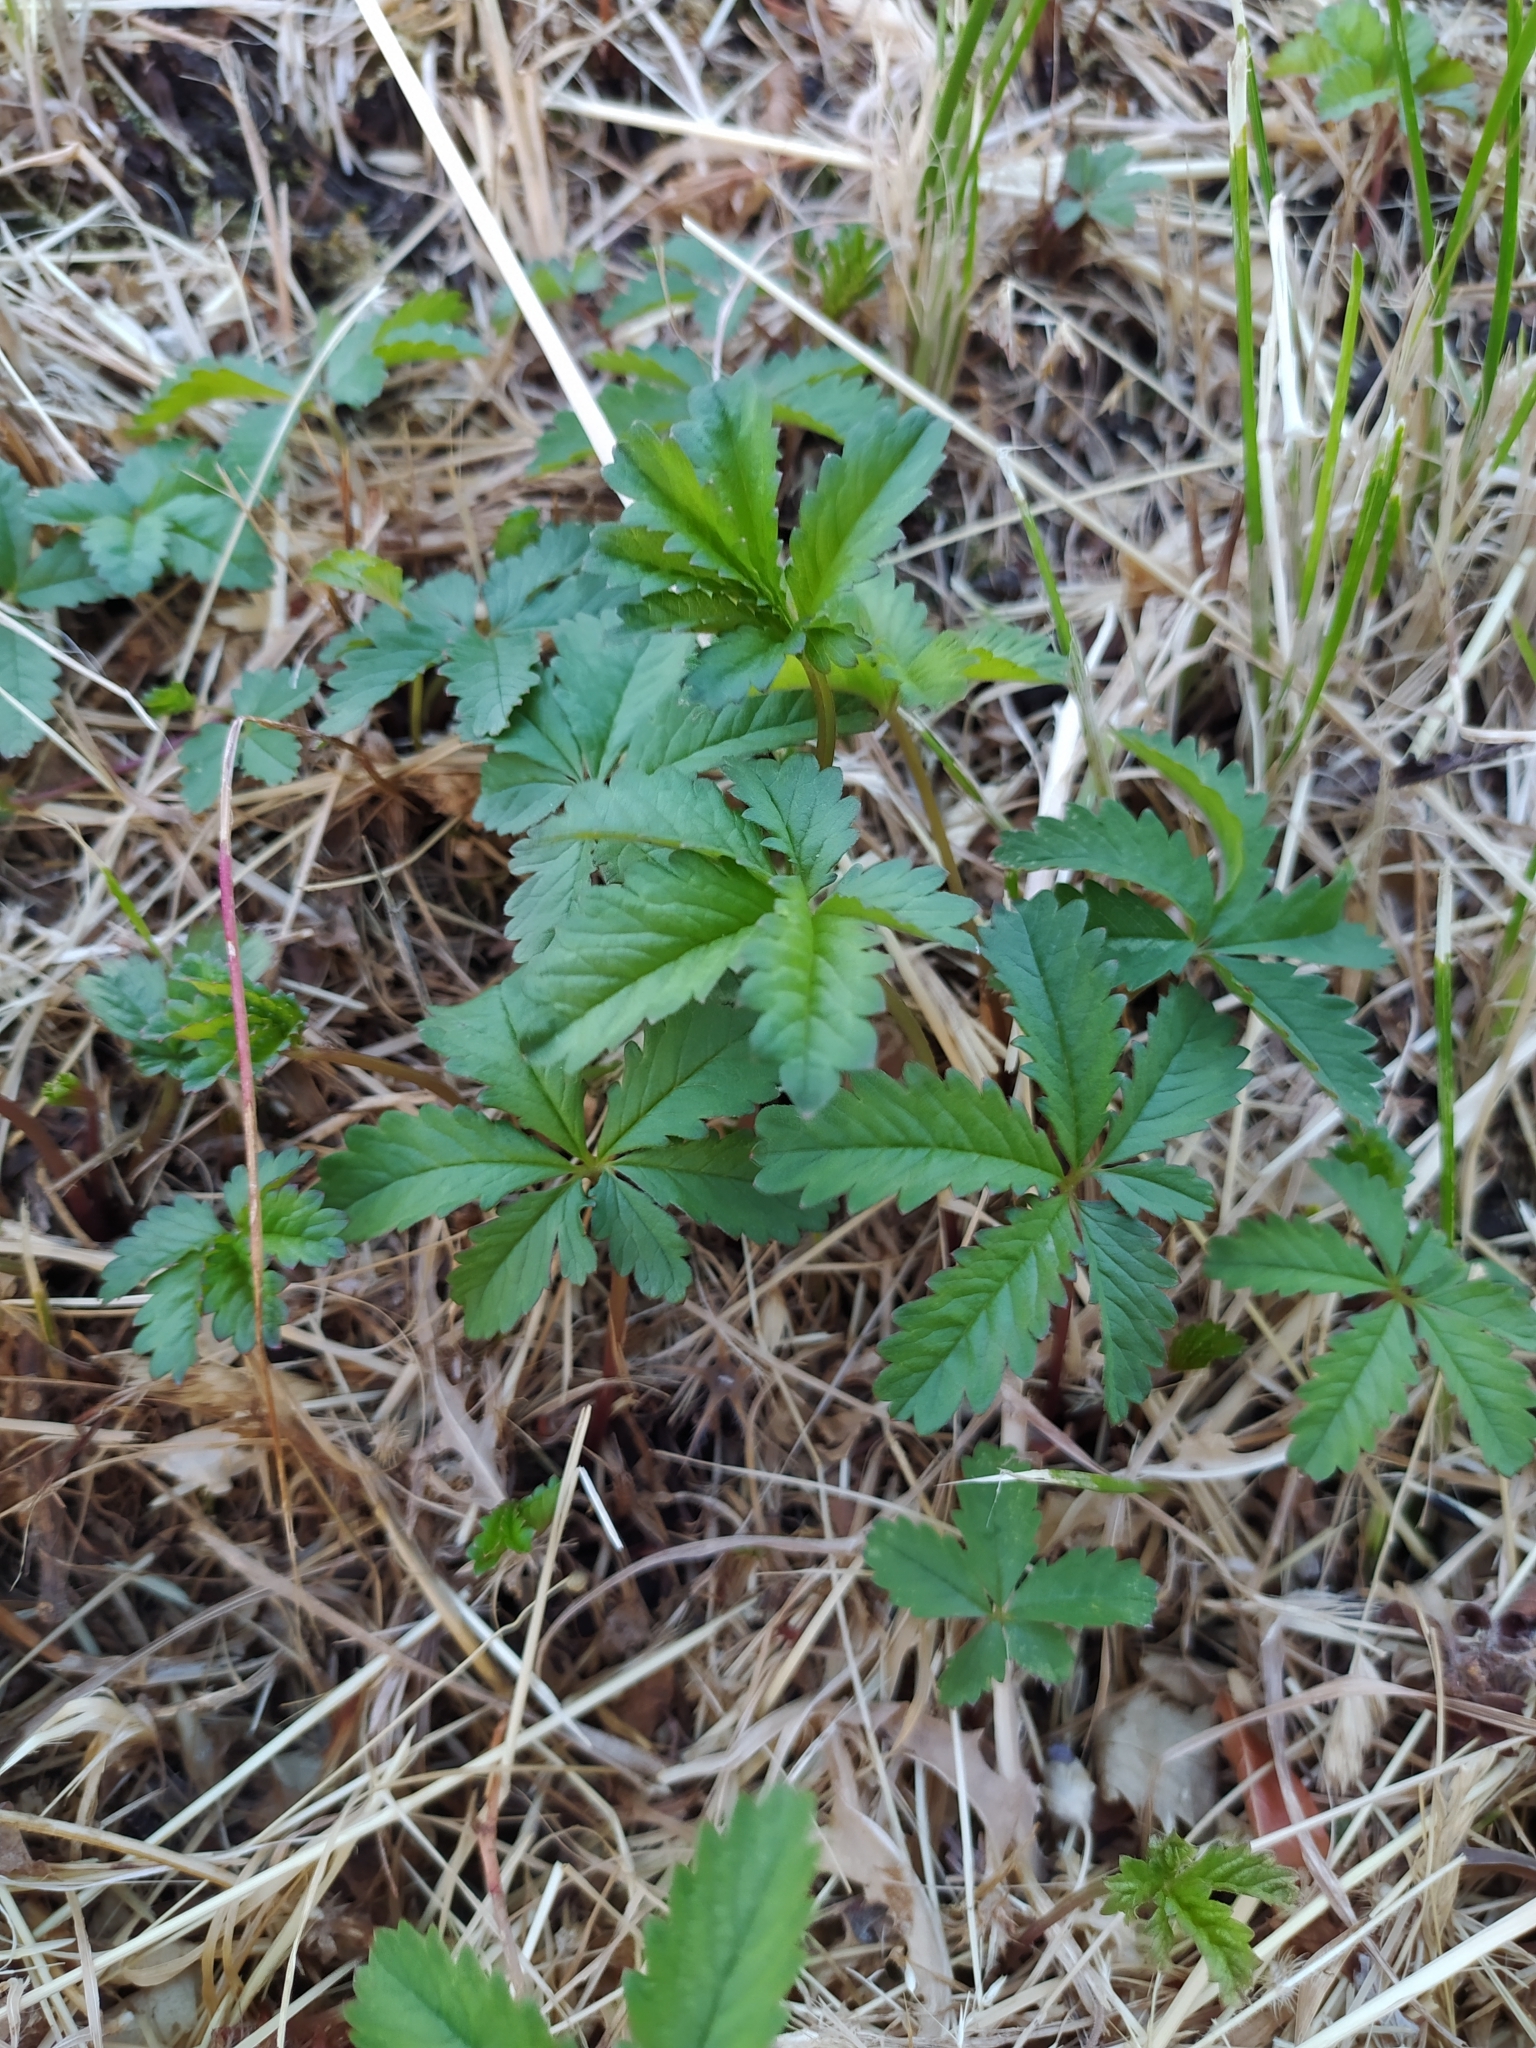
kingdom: Plantae
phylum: Tracheophyta
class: Magnoliopsida
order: Rosales
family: Rosaceae
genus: Potentilla
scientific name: Potentilla reptans
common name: Creeping cinquefoil
